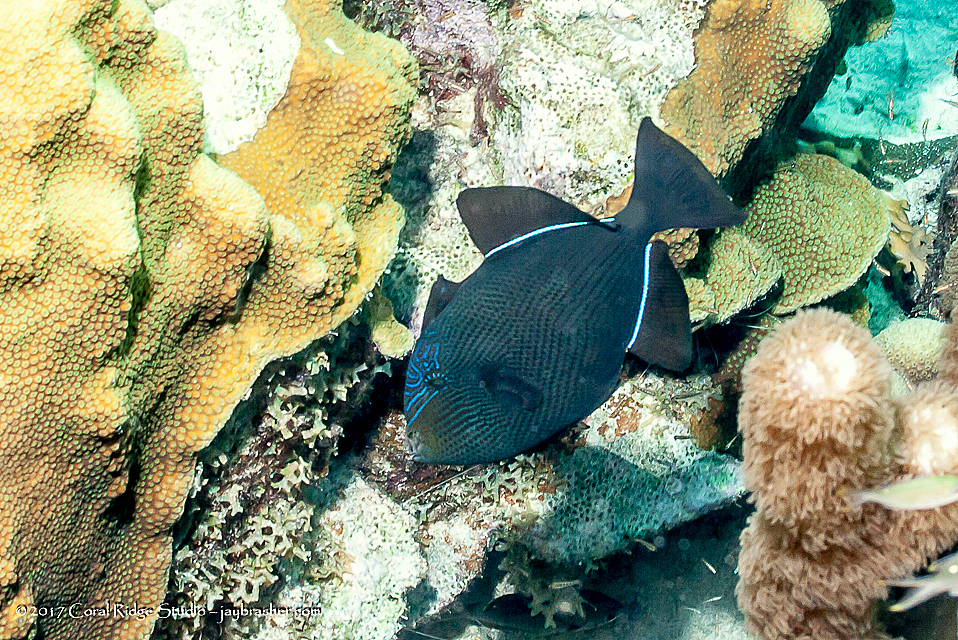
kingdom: Animalia
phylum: Chordata
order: Tetraodontiformes
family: Balistidae
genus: Melichthys
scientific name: Melichthys niger
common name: Black durgon
